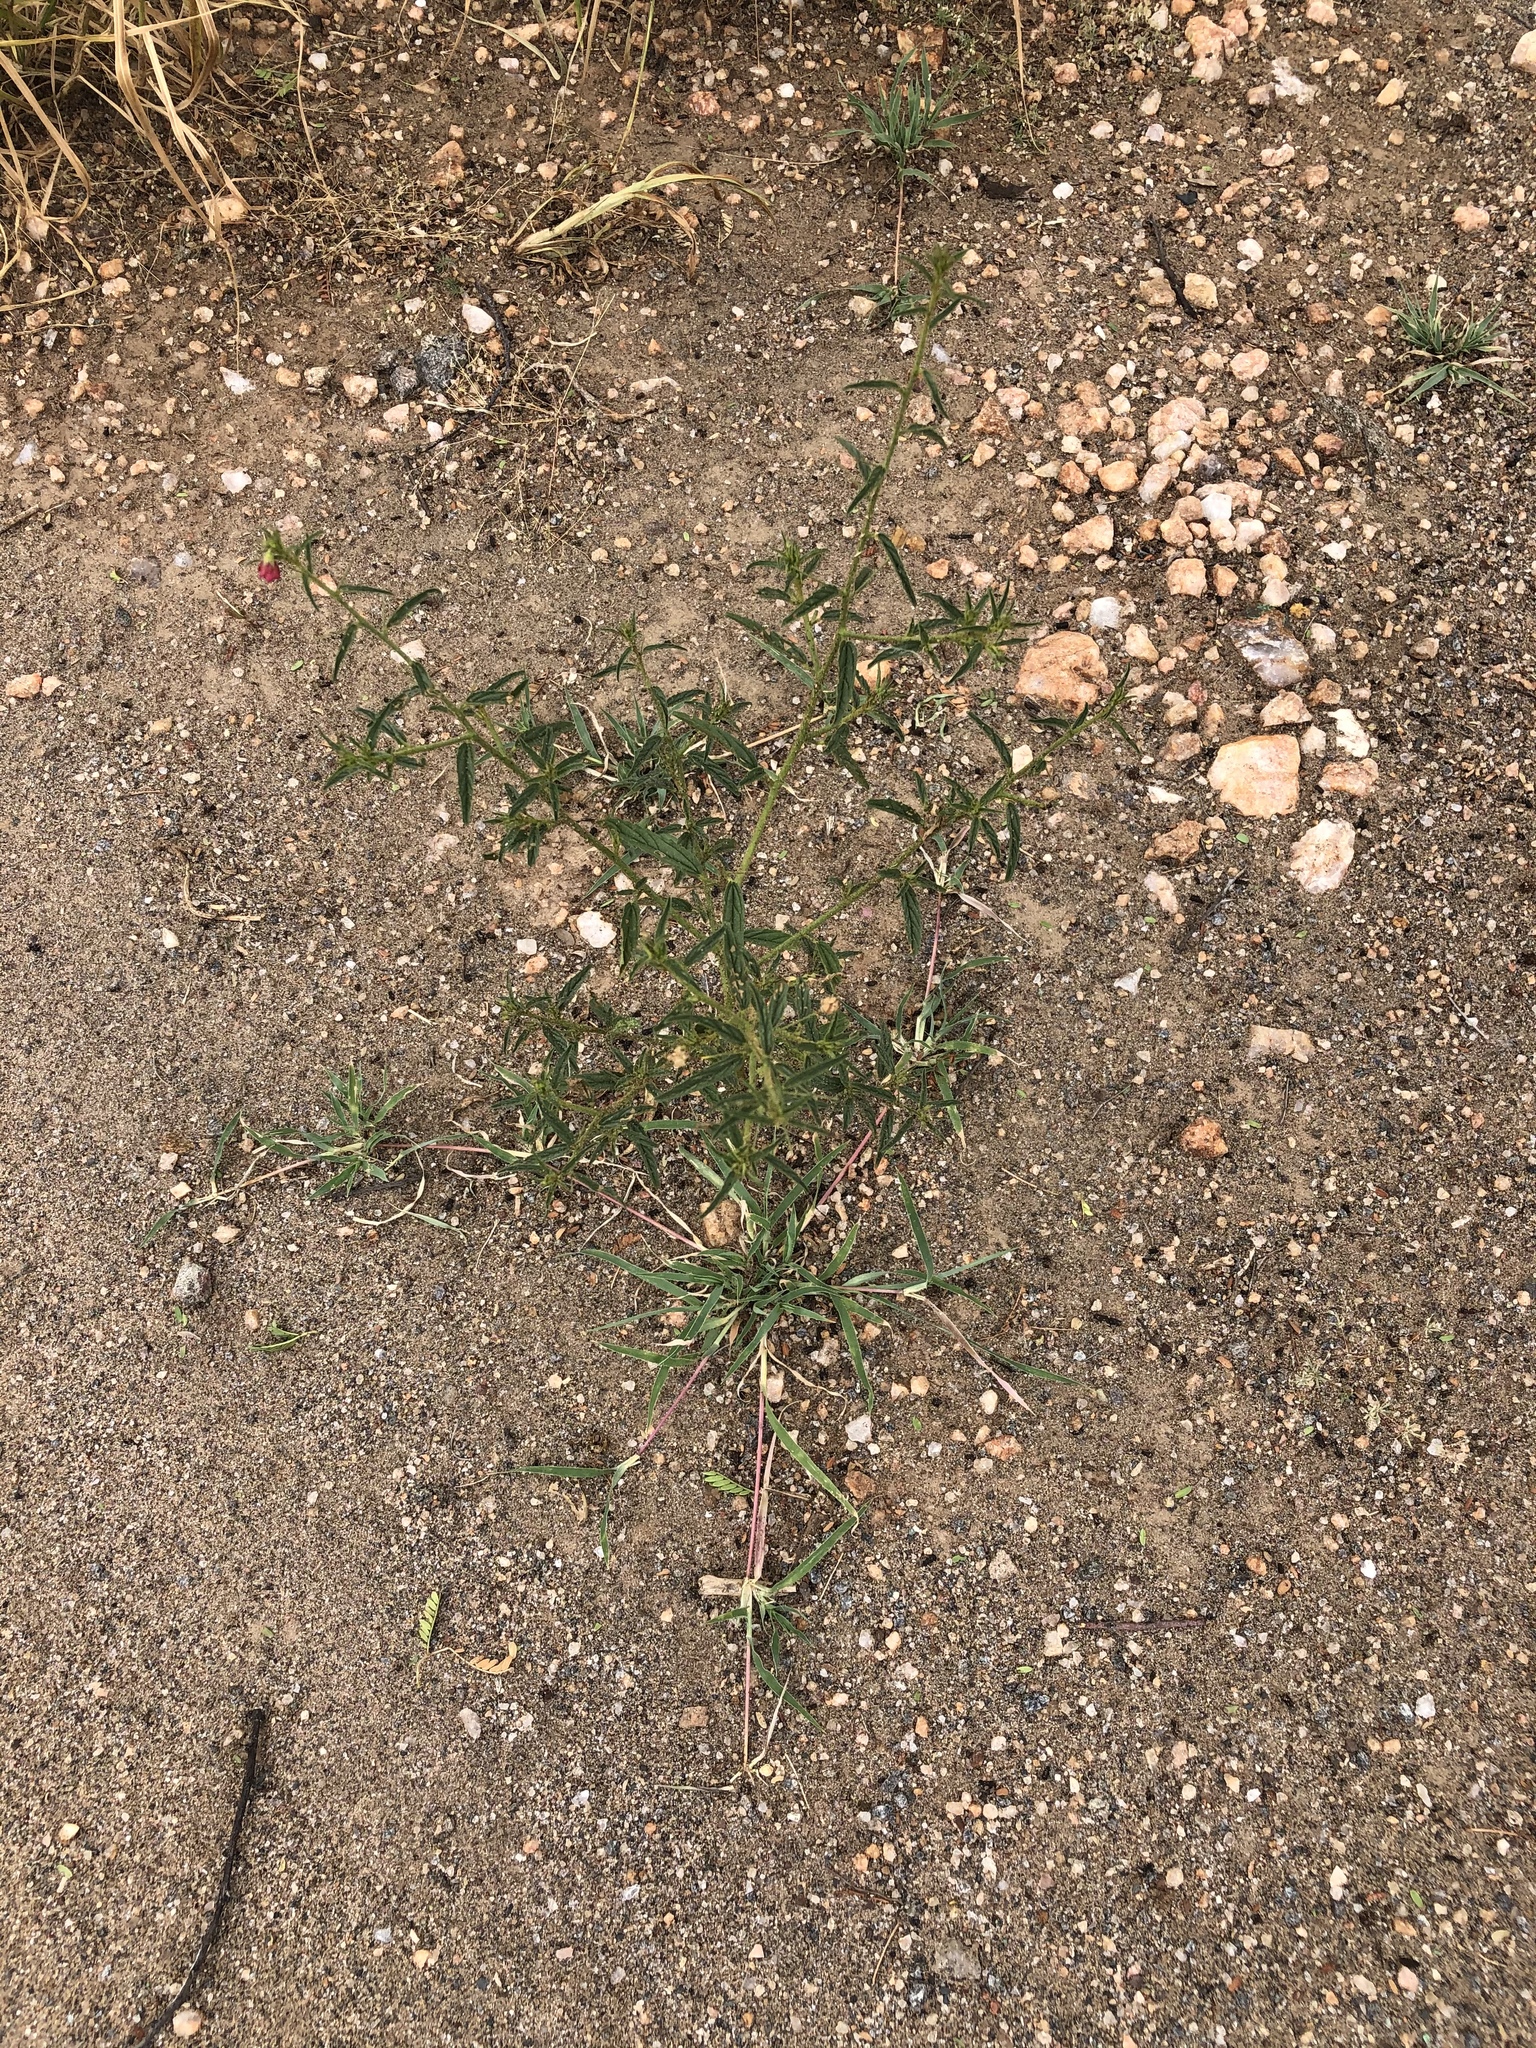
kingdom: Plantae
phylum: Tracheophyta
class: Magnoliopsida
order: Malvales
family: Malvaceae
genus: Hermannia
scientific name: Hermannia modesta
